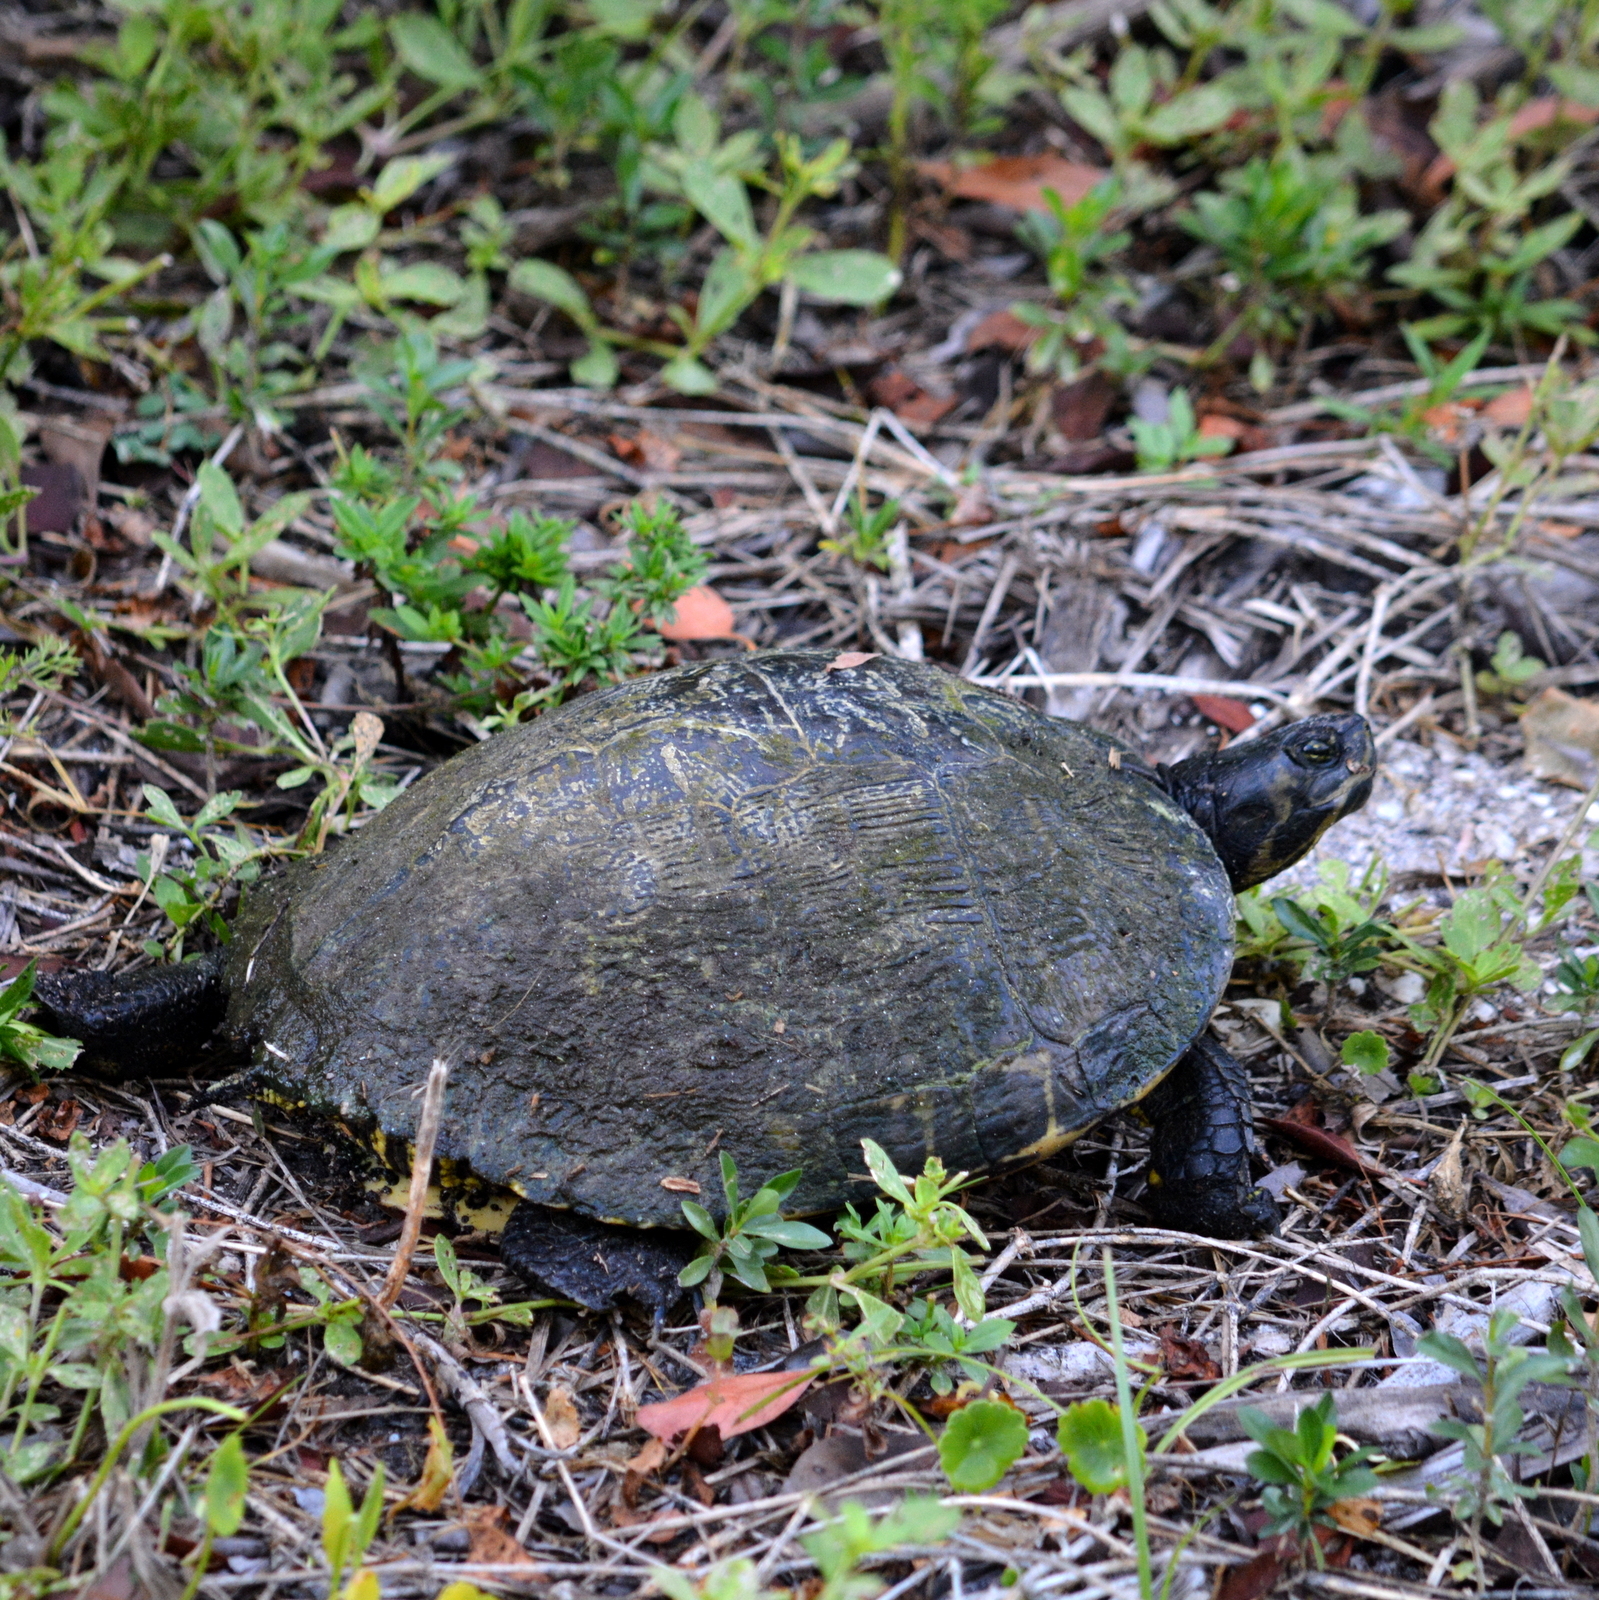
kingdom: Animalia
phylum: Chordata
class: Testudines
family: Emydidae
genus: Trachemys
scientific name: Trachemys scripta
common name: Slider
